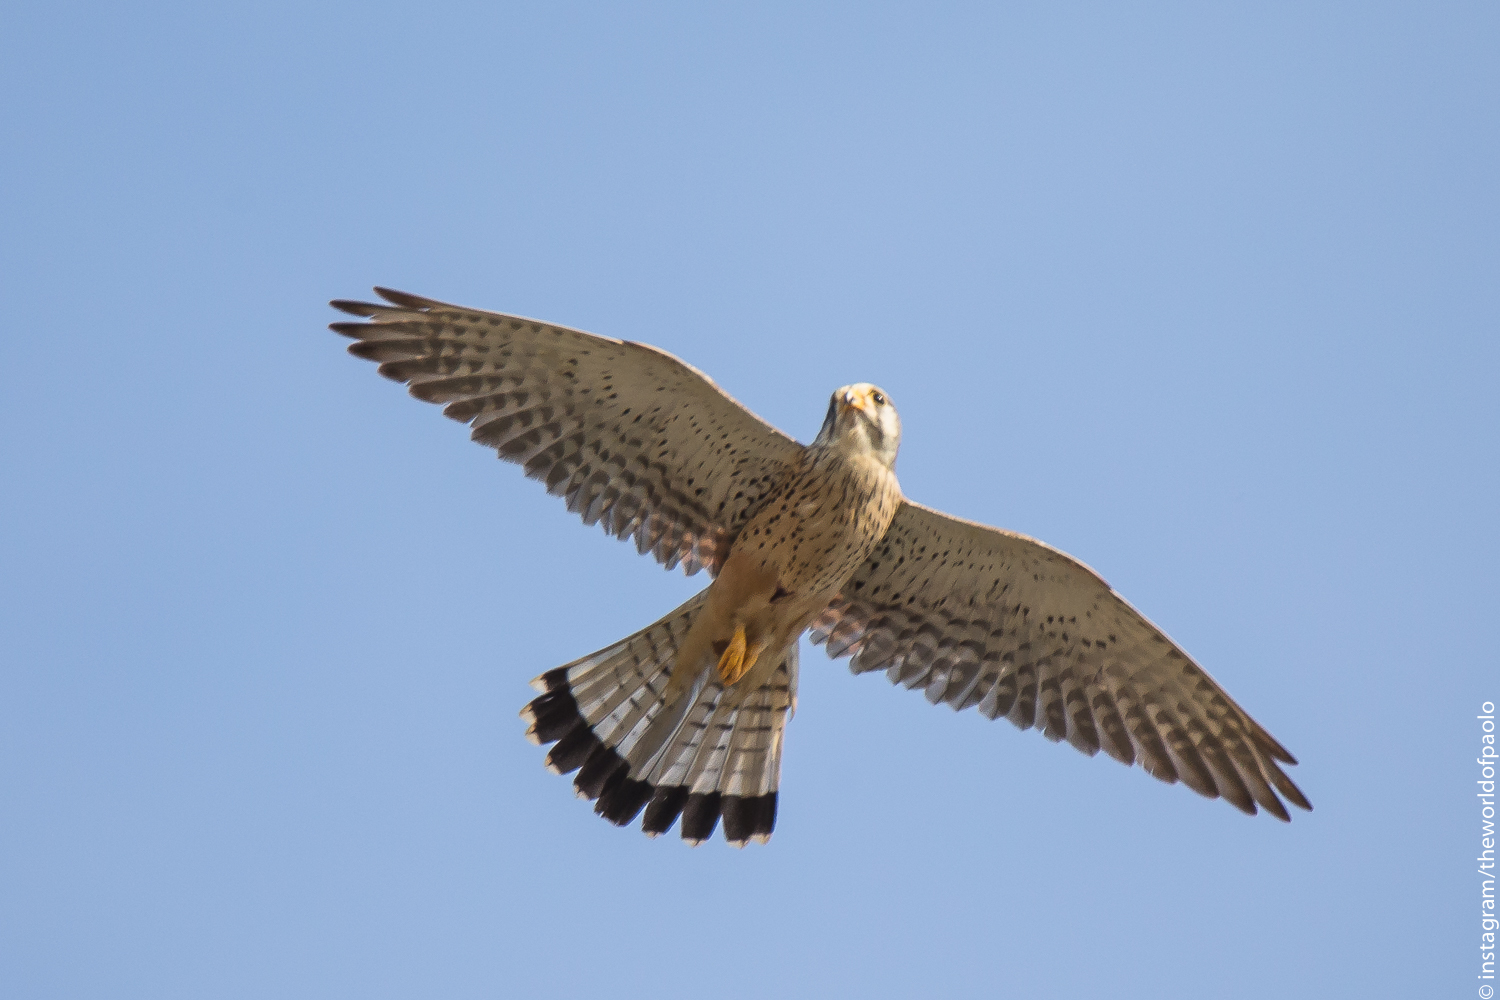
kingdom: Animalia
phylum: Chordata
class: Aves
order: Falconiformes
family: Falconidae
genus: Falco
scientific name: Falco tinnunculus
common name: Common kestrel
